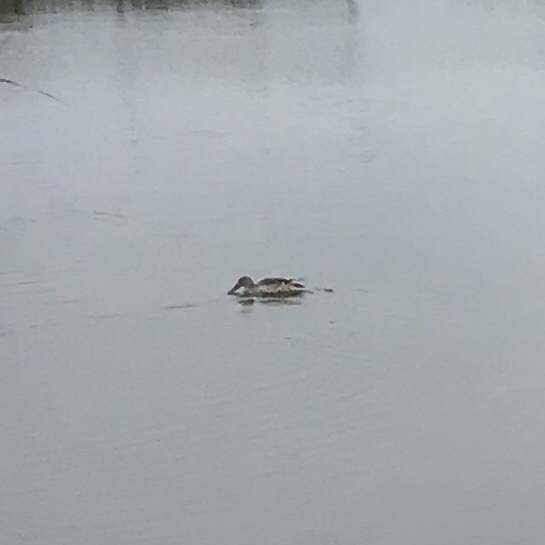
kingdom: Animalia
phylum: Chordata
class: Aves
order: Anseriformes
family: Anatidae
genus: Spatula
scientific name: Spatula clypeata
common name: Northern shoveler
